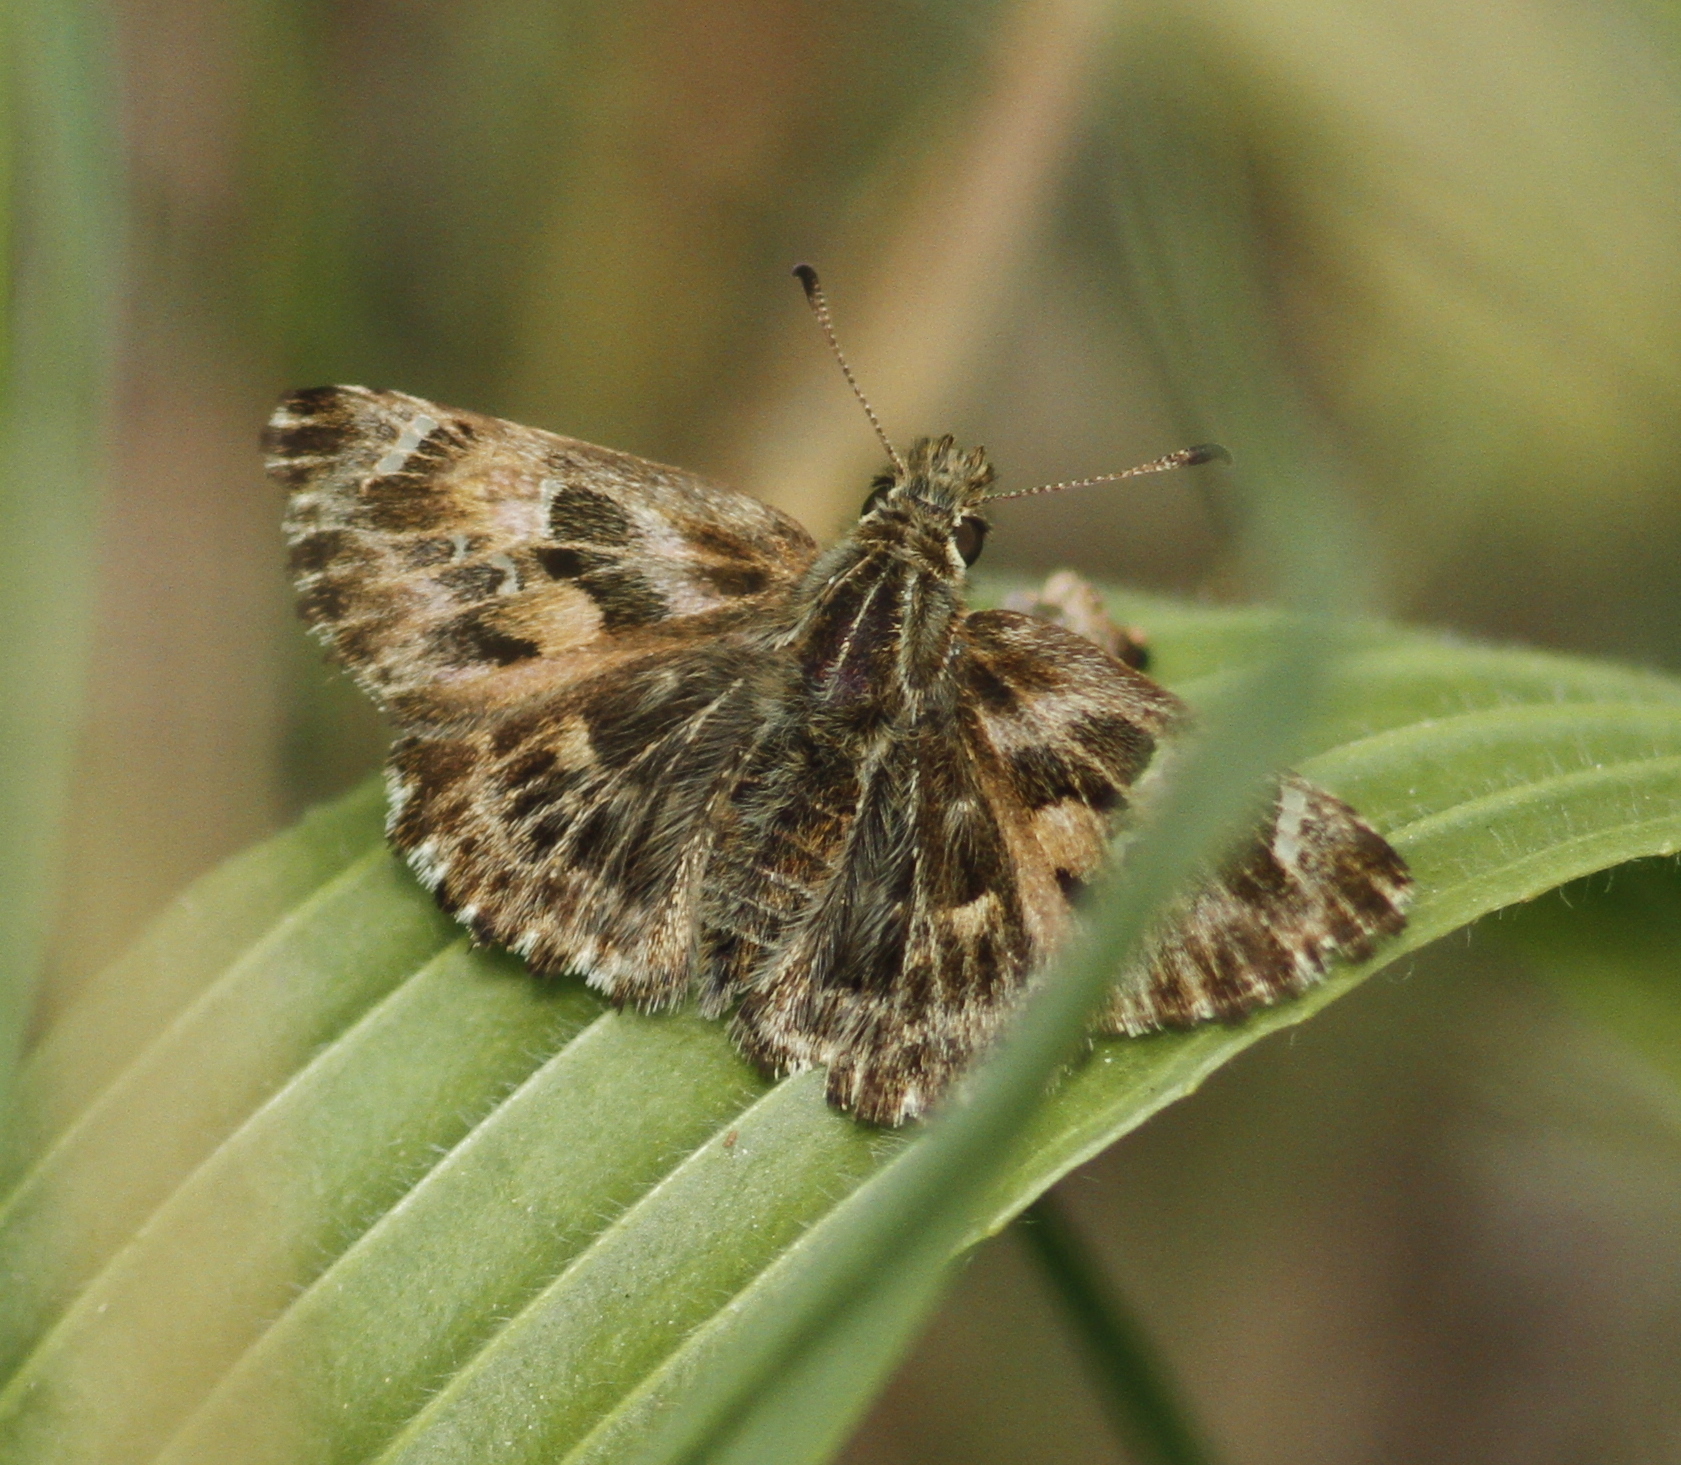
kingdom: Animalia
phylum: Arthropoda
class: Insecta
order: Lepidoptera
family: Hesperiidae
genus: Carcharodus
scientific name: Carcharodus alceae
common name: Mallow skipper
